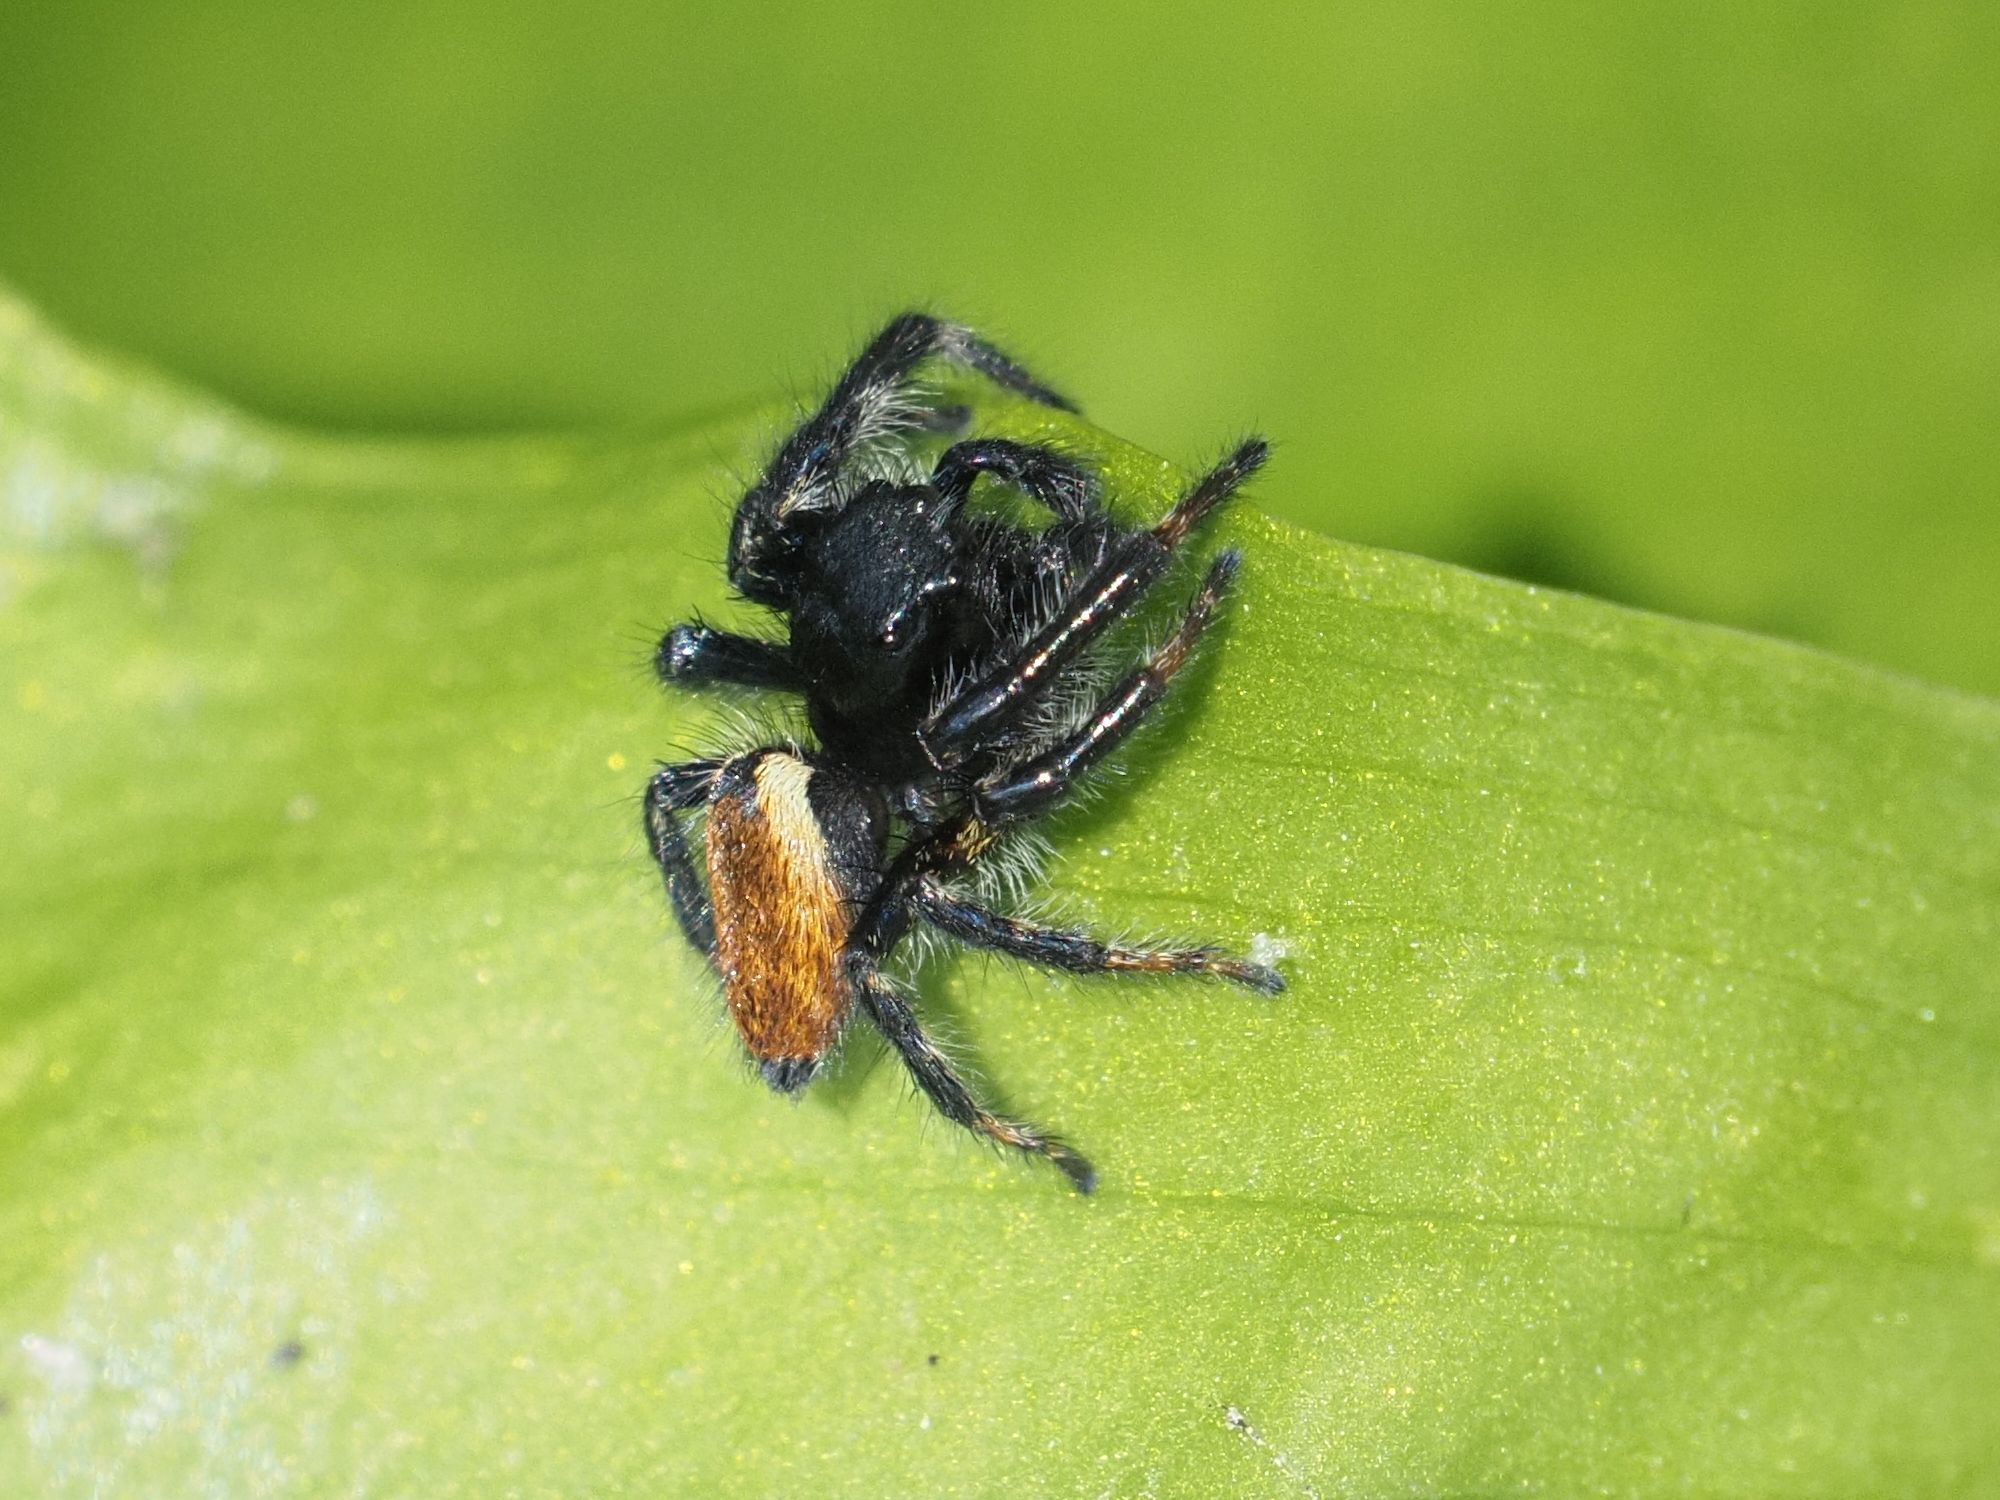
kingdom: Animalia
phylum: Arthropoda
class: Arachnida
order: Araneae
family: Salticidae
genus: Carrhotus
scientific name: Carrhotus xanthogramma
